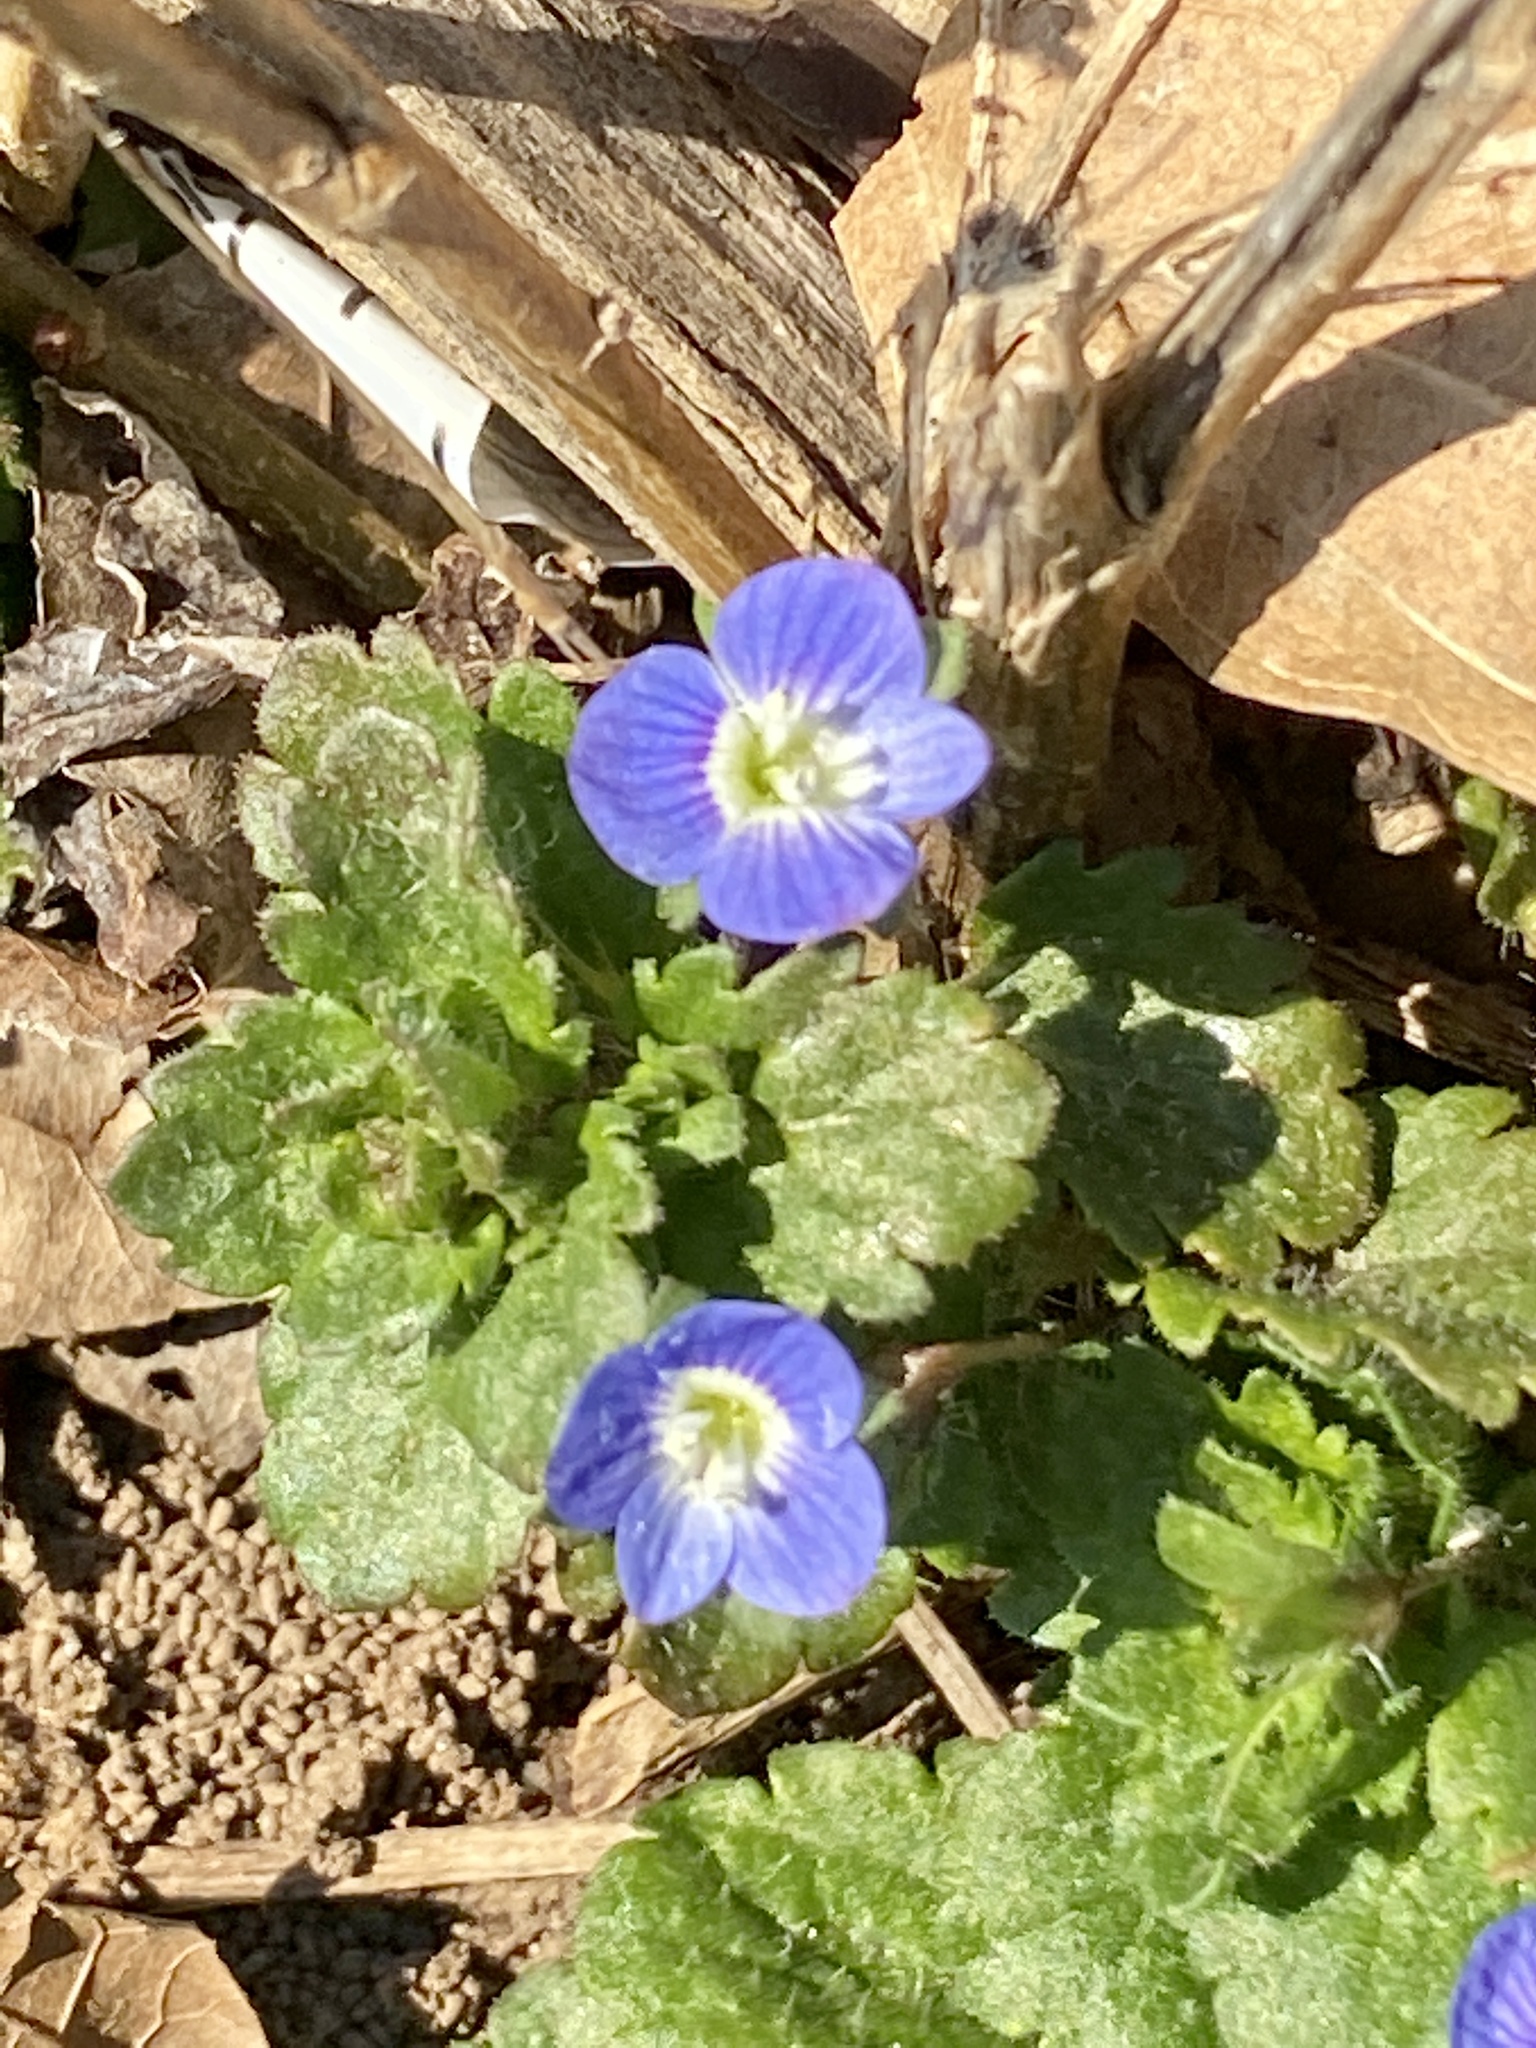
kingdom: Plantae
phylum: Tracheophyta
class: Magnoliopsida
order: Lamiales
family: Plantaginaceae
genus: Veronica
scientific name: Veronica persica
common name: Common field-speedwell
